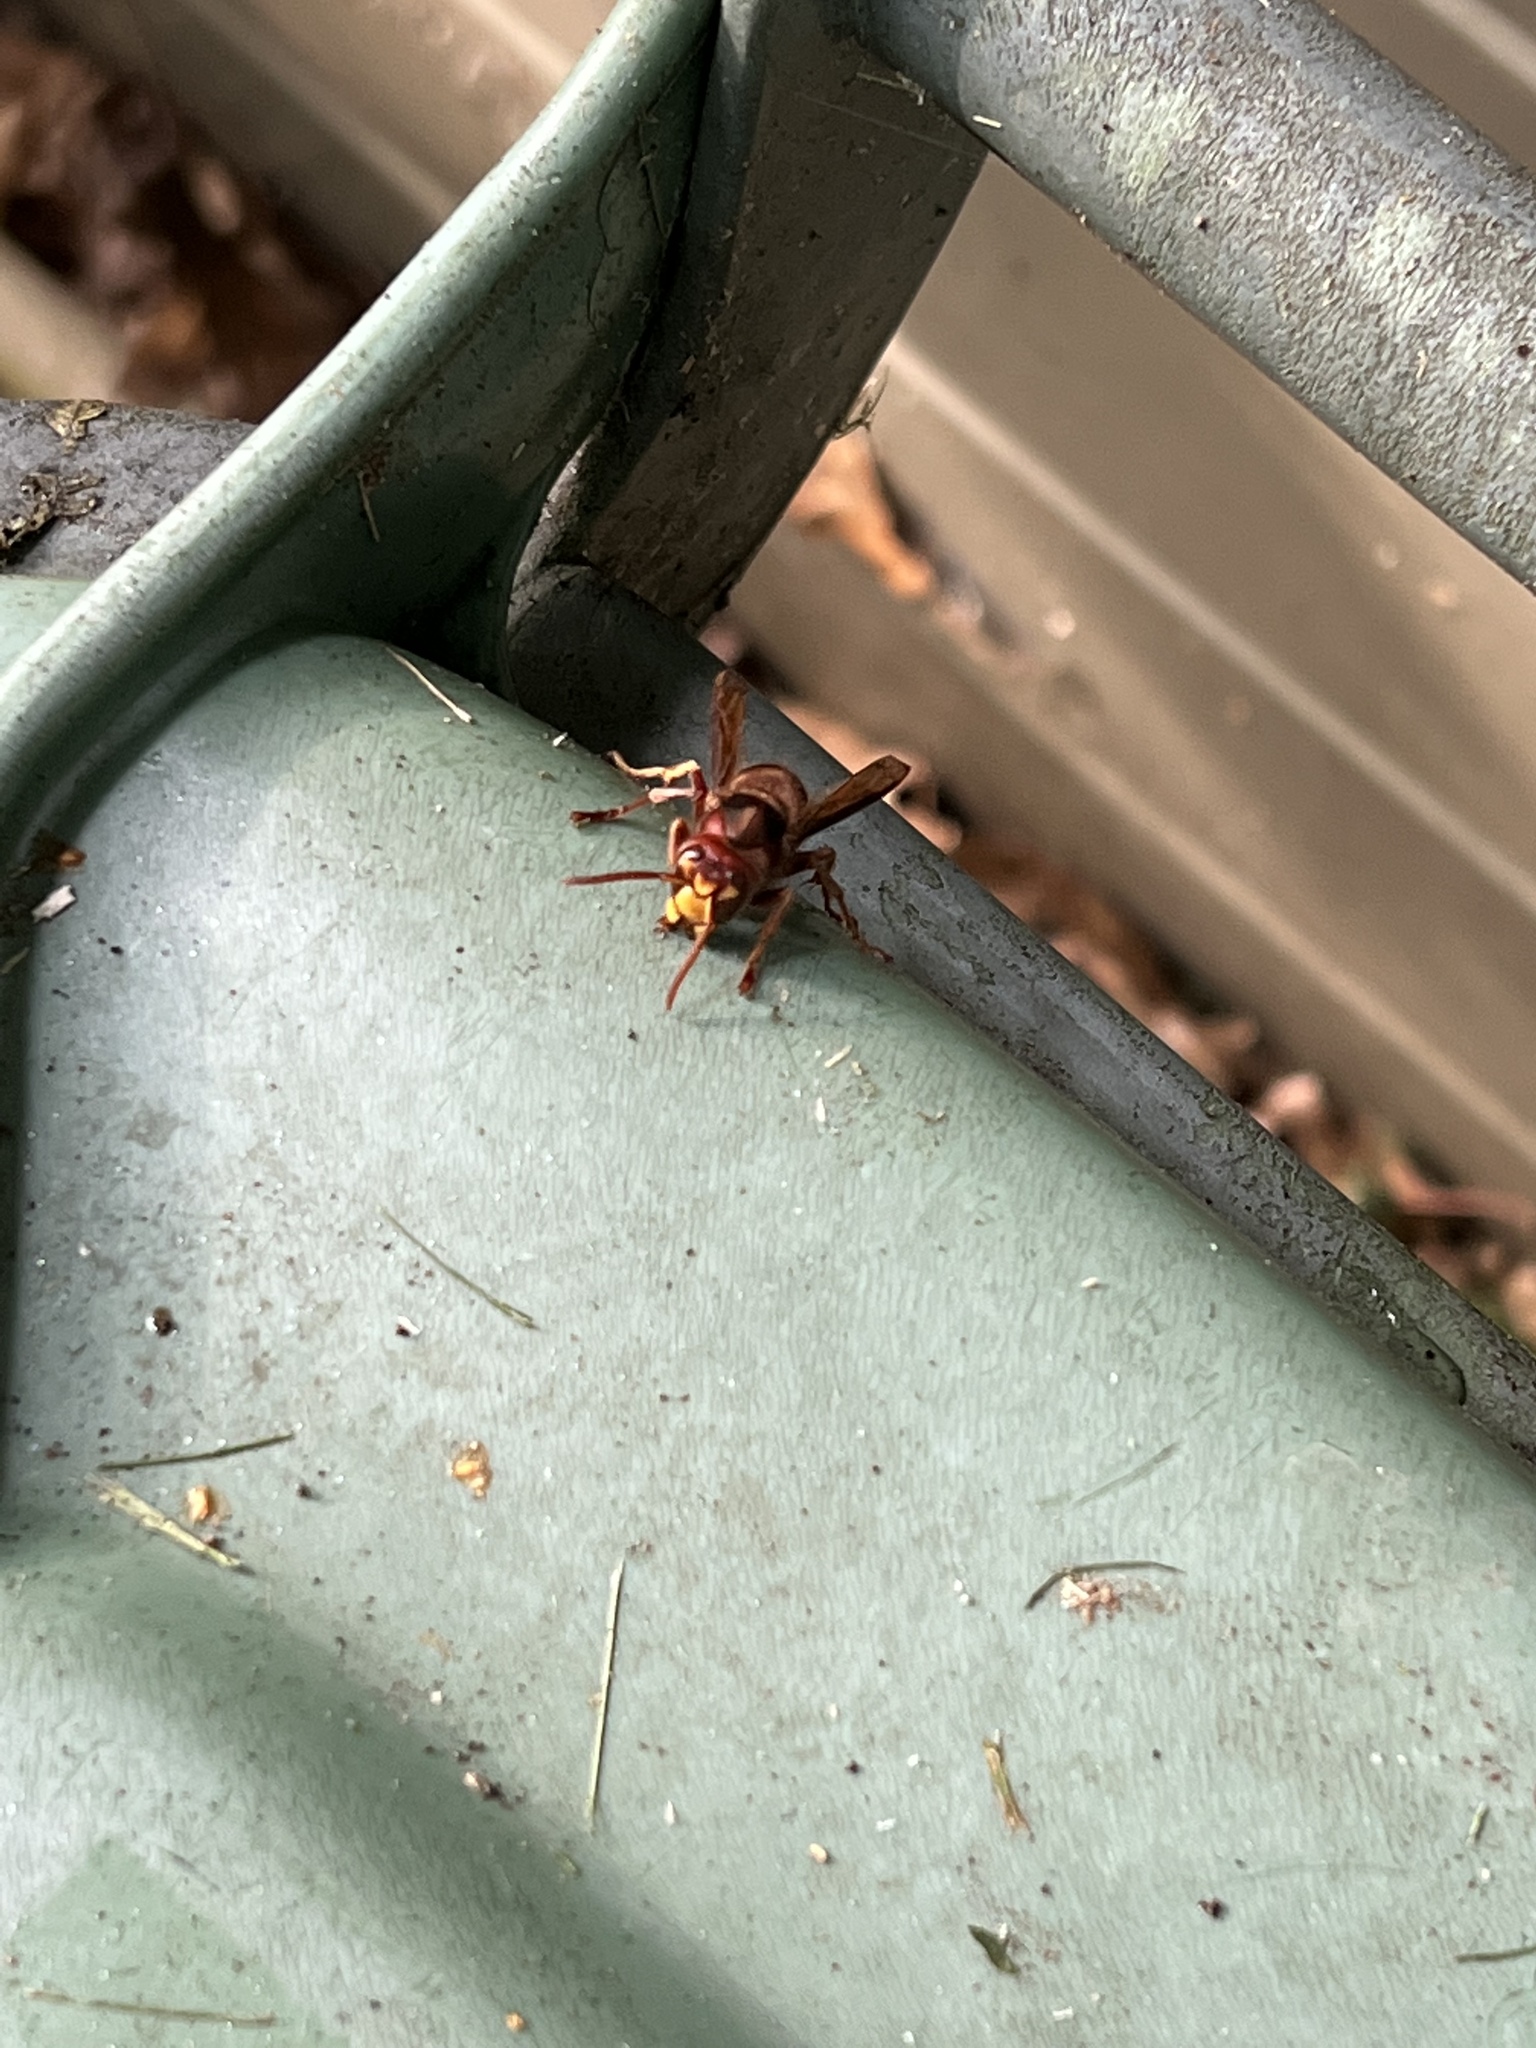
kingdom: Animalia
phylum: Arthropoda
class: Insecta
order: Hymenoptera
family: Vespidae
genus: Vespa
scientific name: Vespa crabro
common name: Hornet
